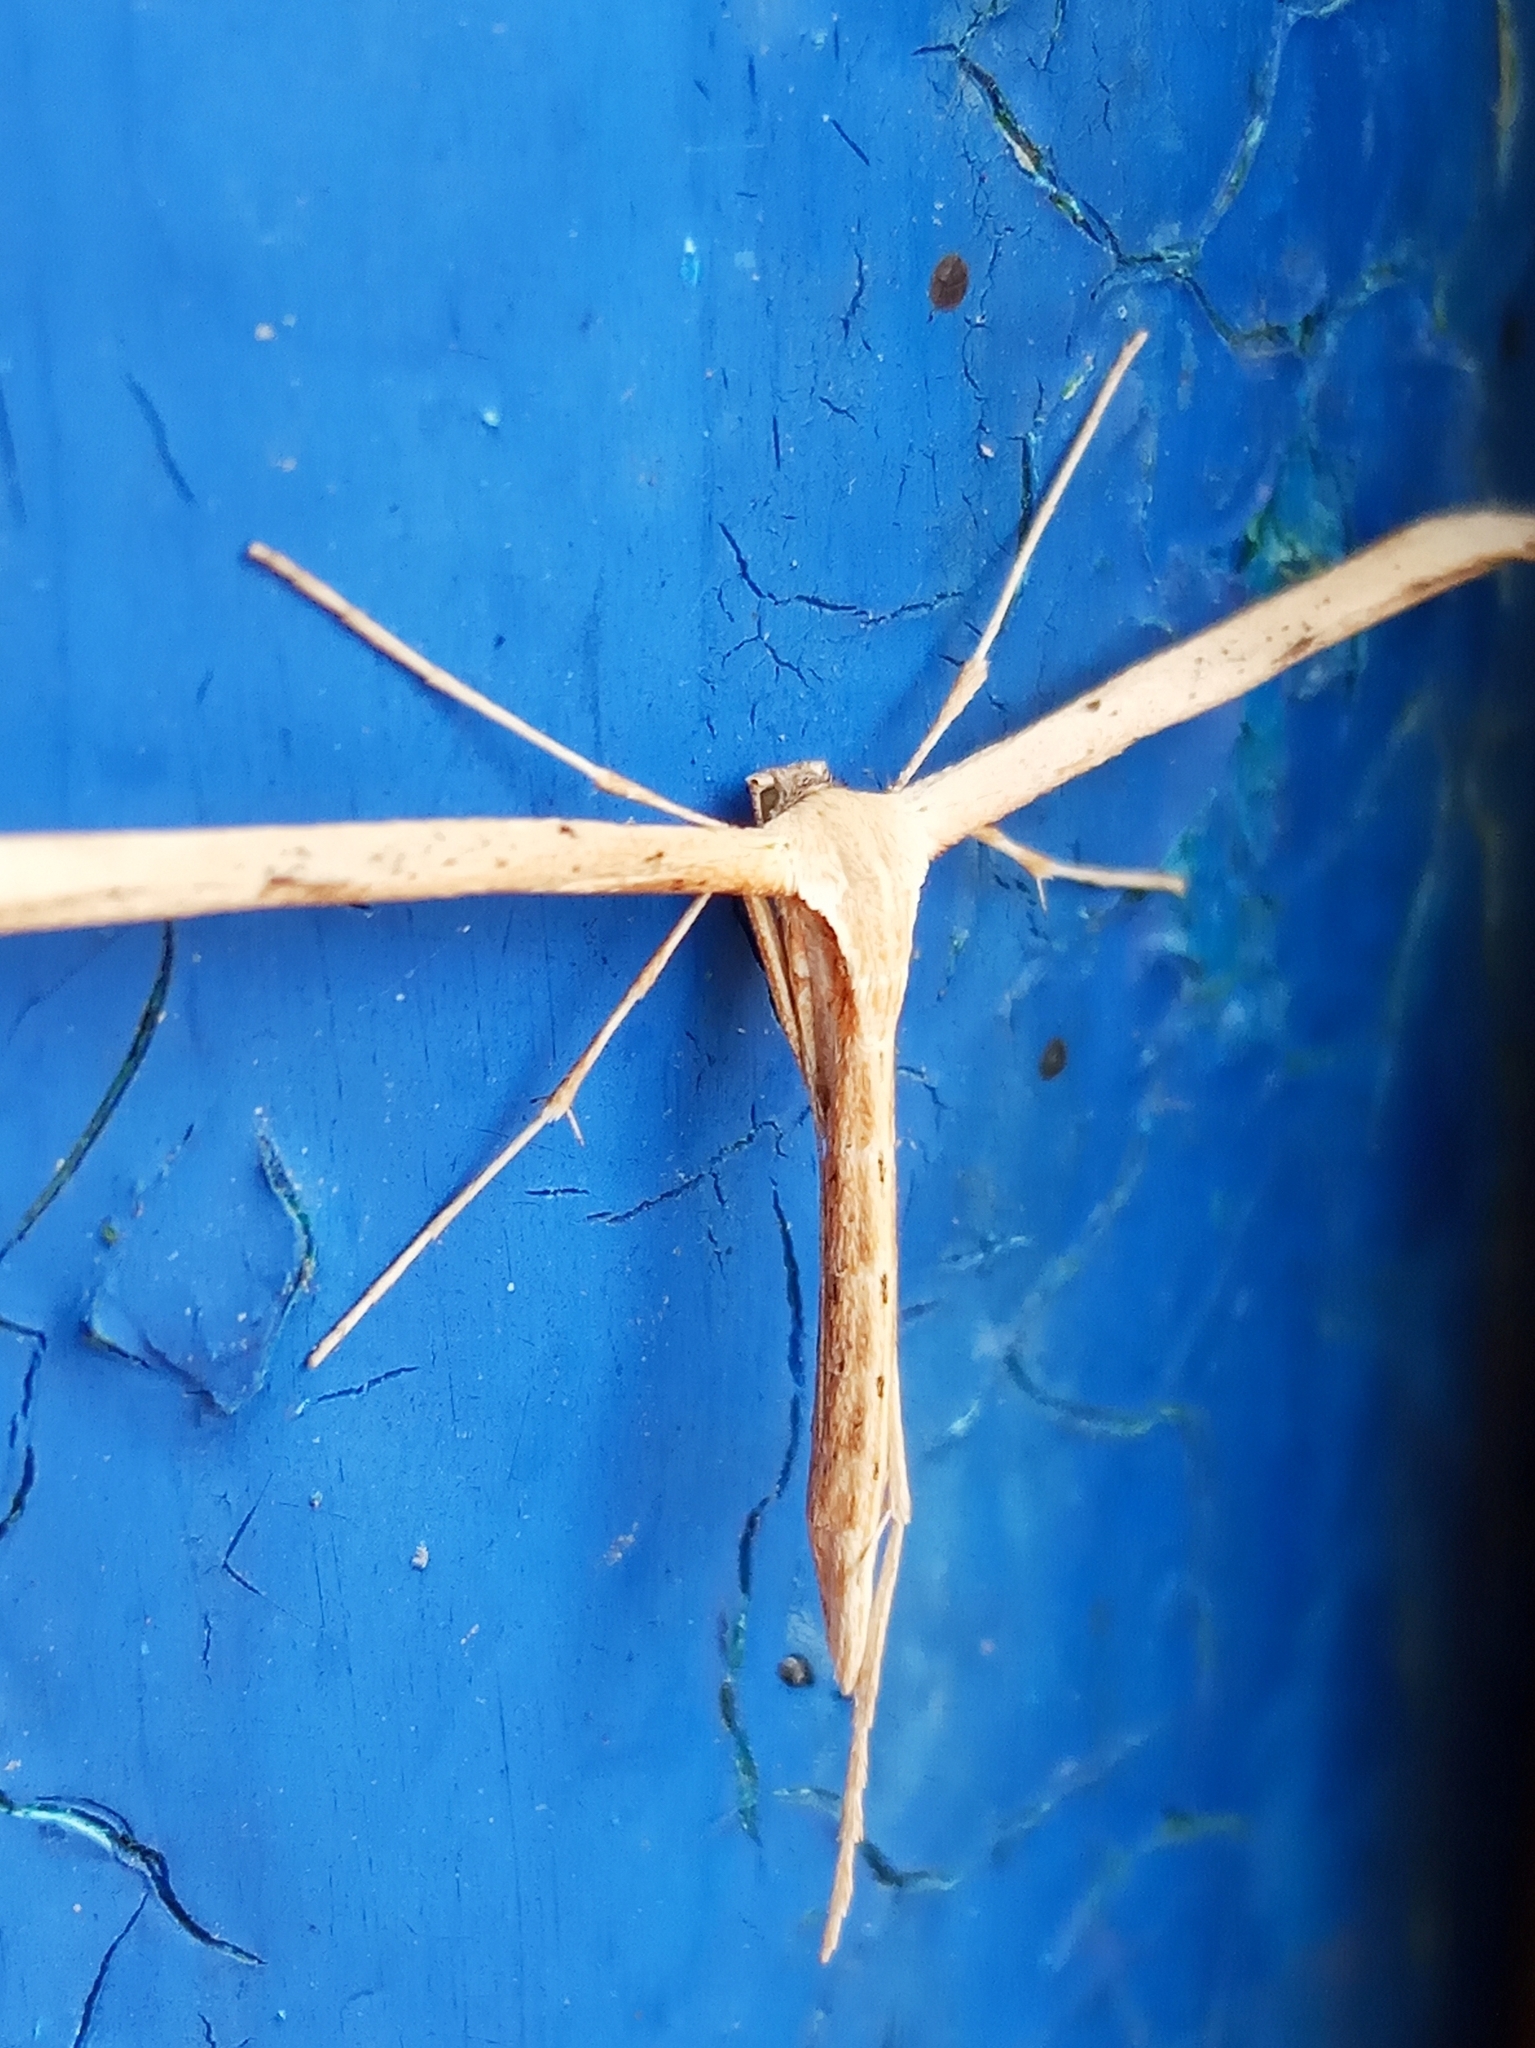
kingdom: Animalia
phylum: Arthropoda
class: Insecta
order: Lepidoptera
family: Pterophoridae
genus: Emmelina
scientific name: Emmelina monodactyla
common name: Common plume
